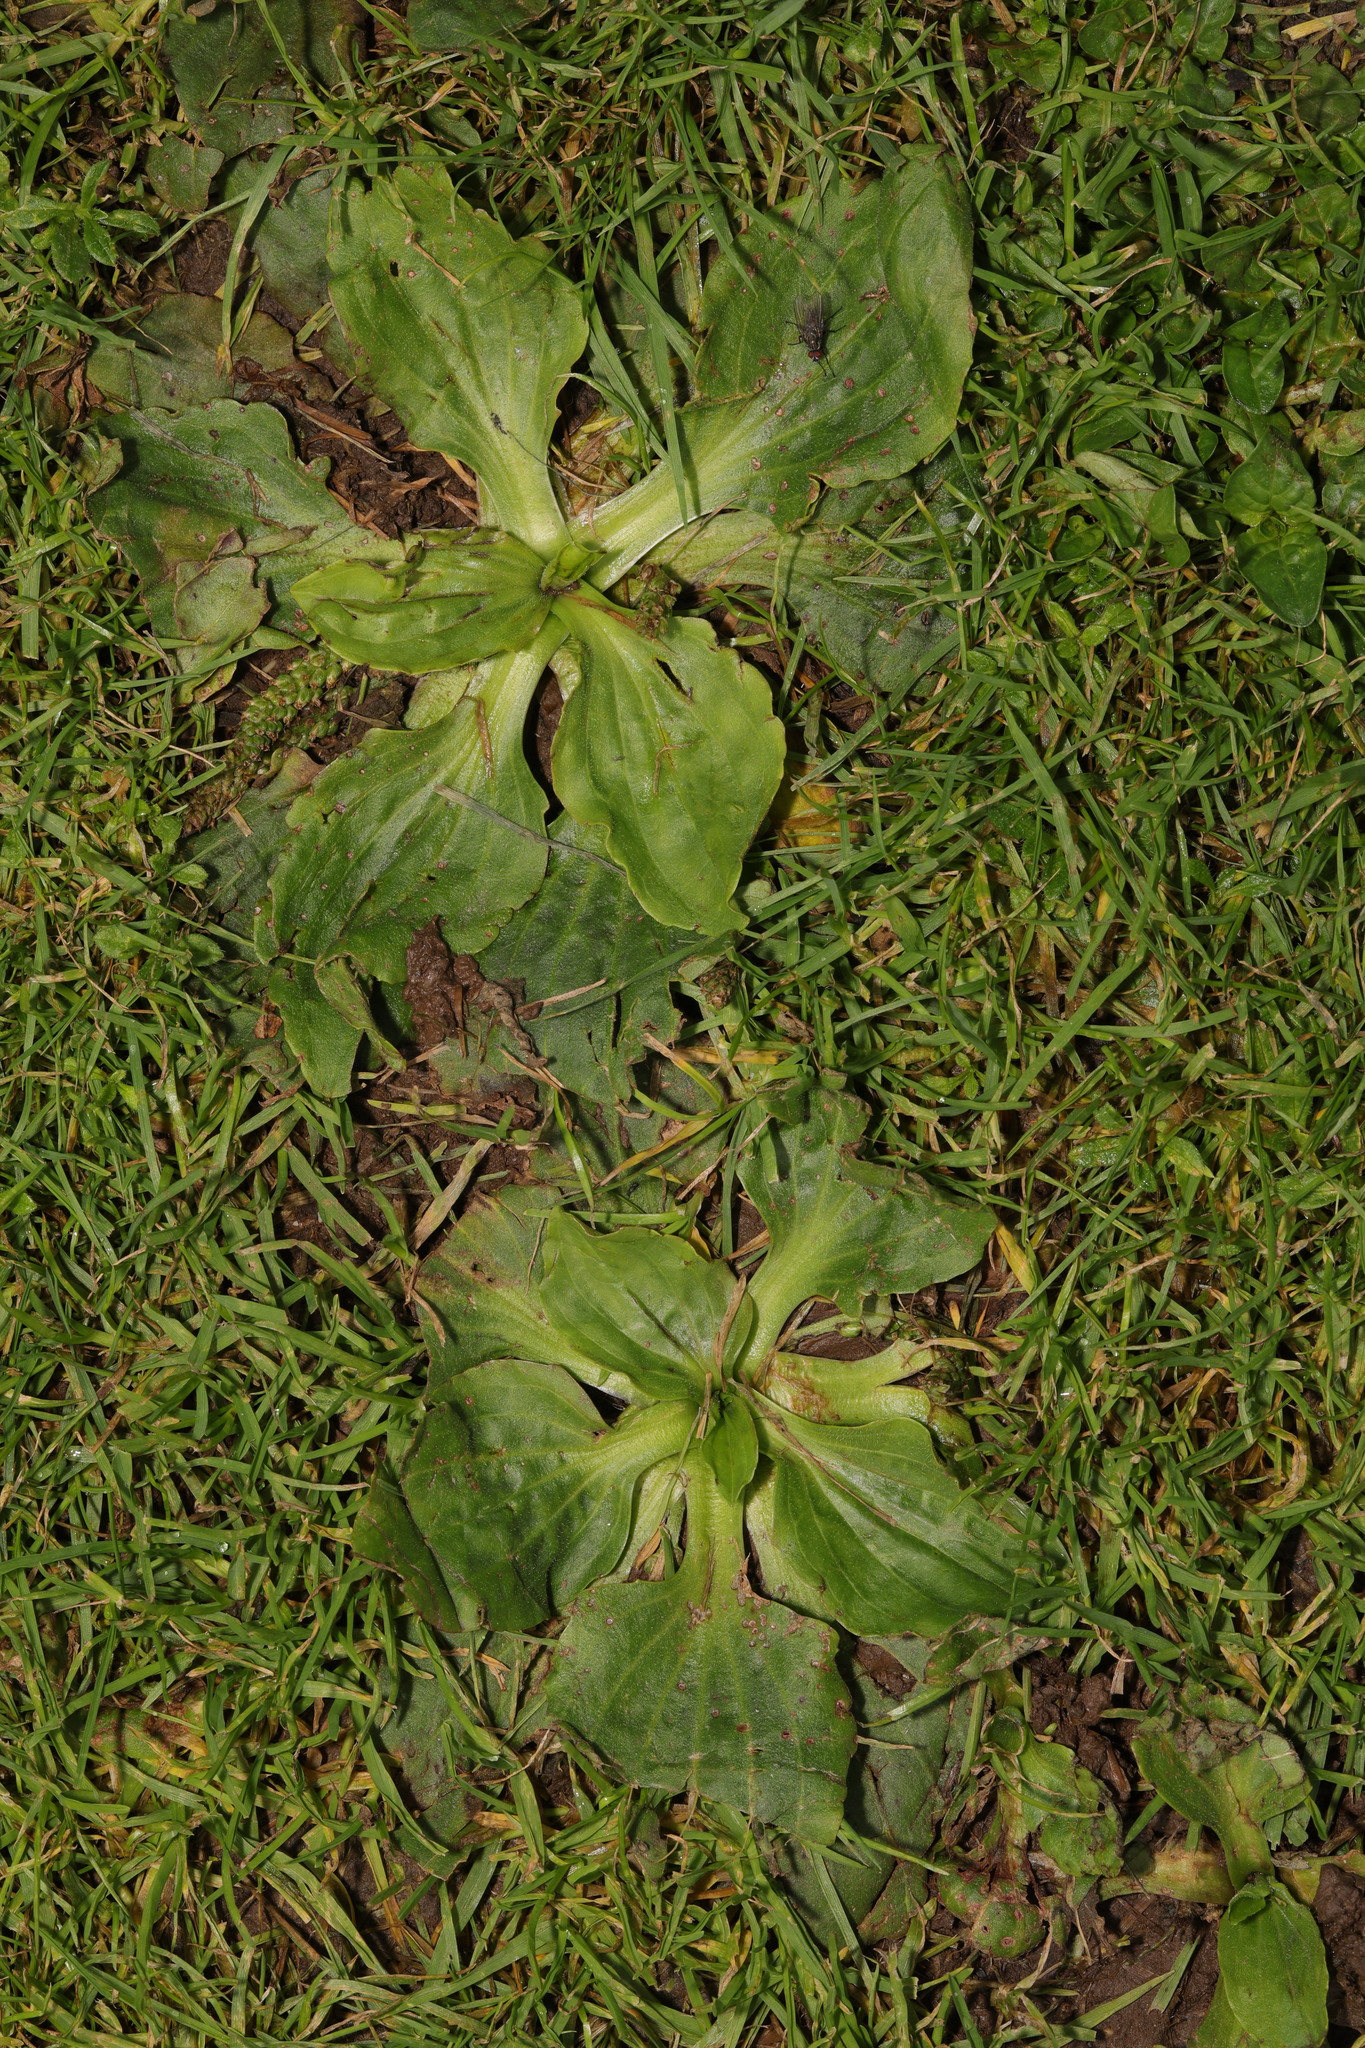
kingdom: Plantae
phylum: Tracheophyta
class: Magnoliopsida
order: Lamiales
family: Plantaginaceae
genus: Plantago
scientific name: Plantago major
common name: Common plantain
